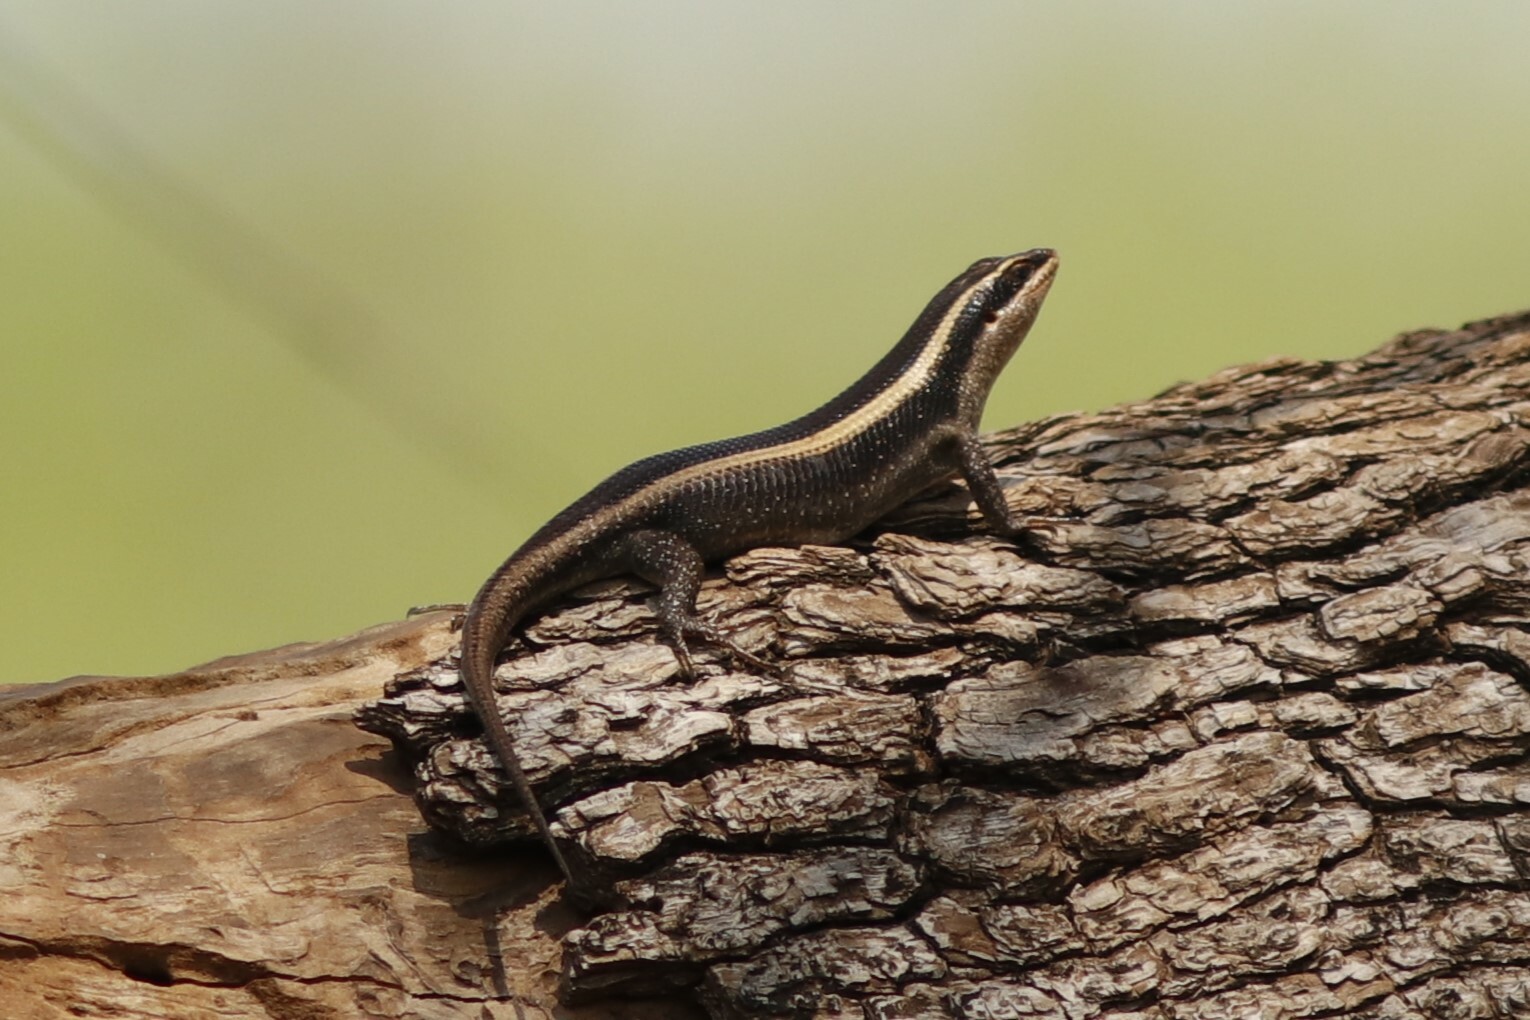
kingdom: Animalia
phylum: Chordata
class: Squamata
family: Scincidae
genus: Trachylepis
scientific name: Trachylepis striata
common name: African striped mabuya
